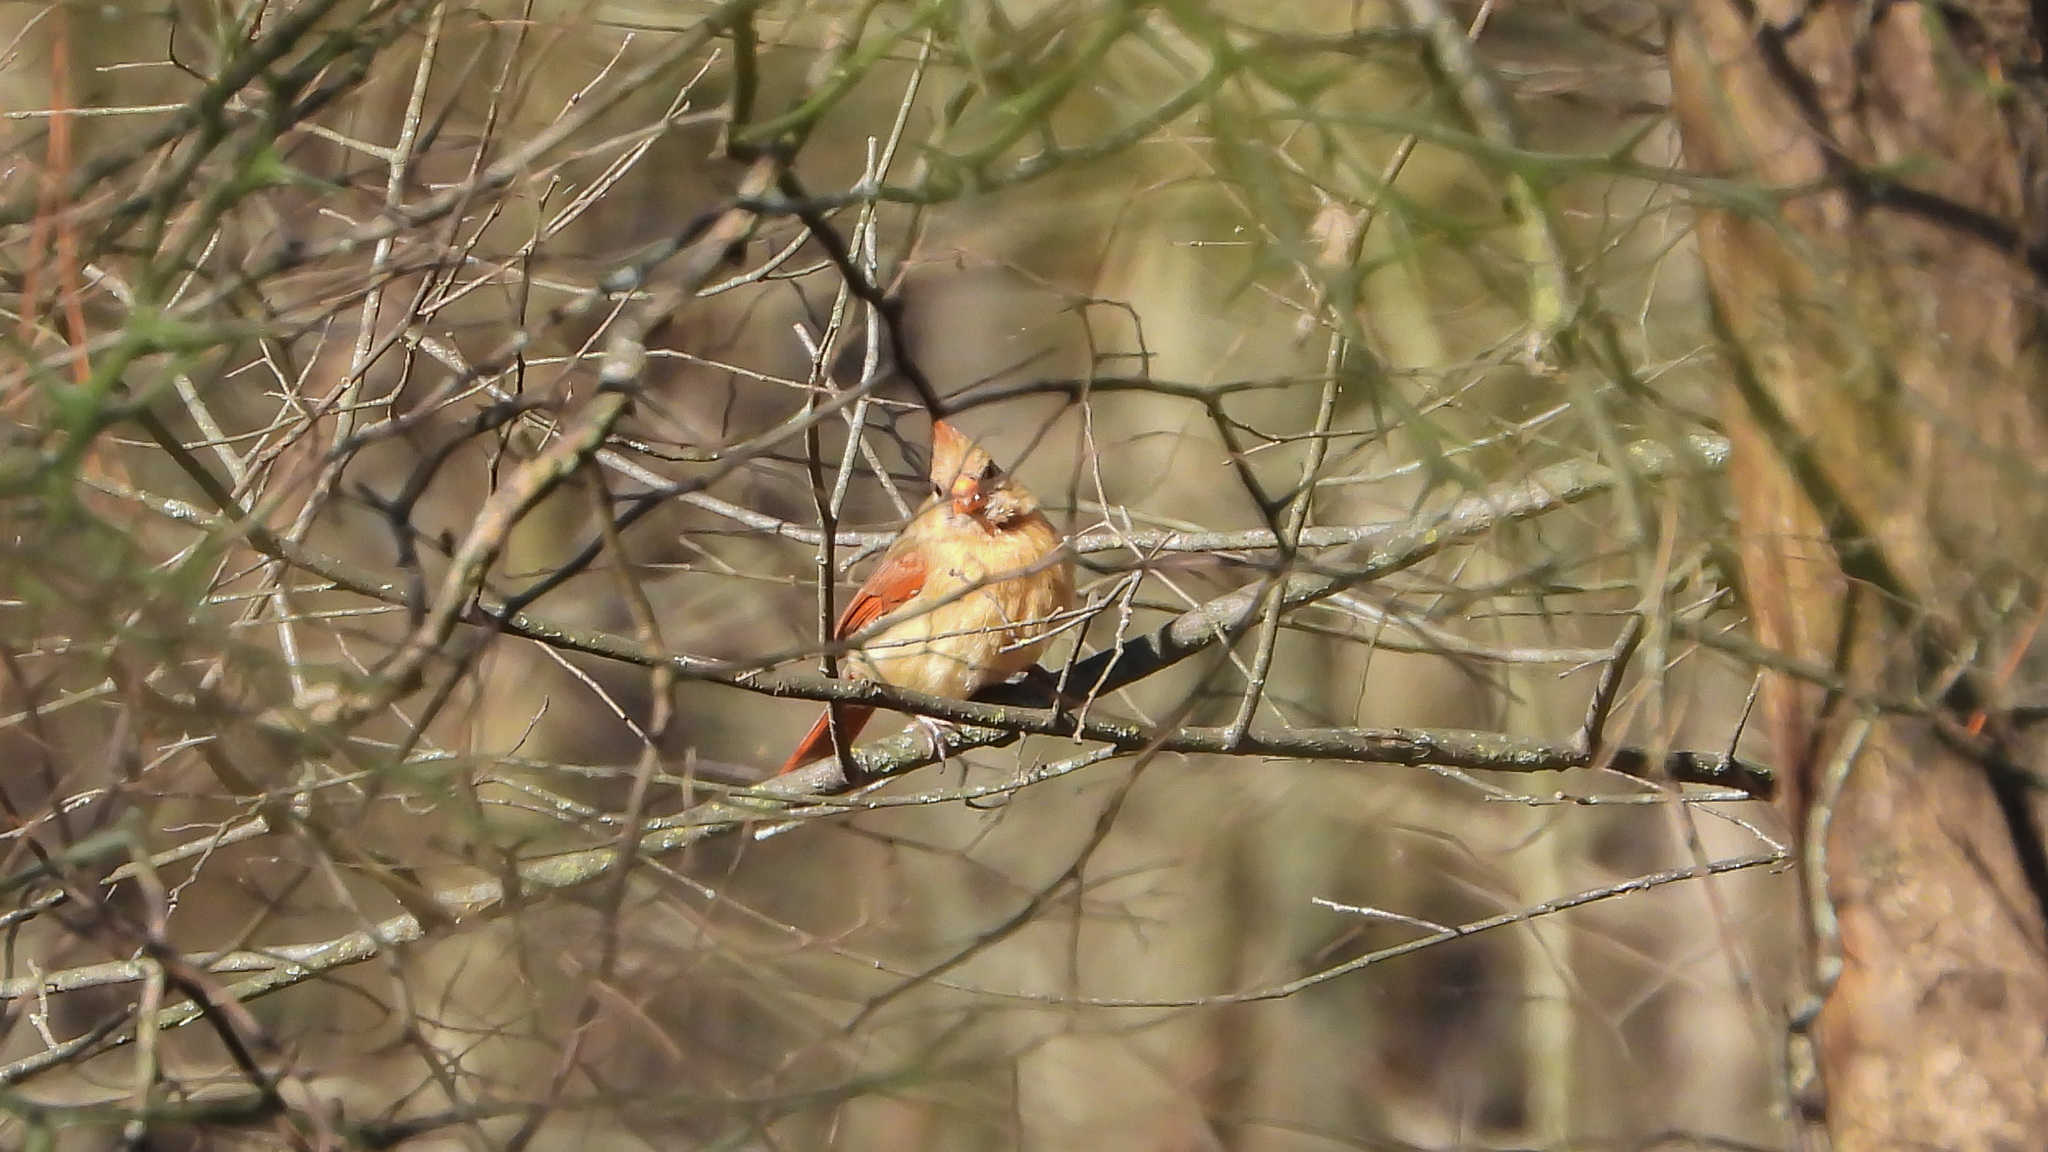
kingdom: Animalia
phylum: Chordata
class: Aves
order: Passeriformes
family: Cardinalidae
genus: Cardinalis
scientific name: Cardinalis cardinalis
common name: Northern cardinal
